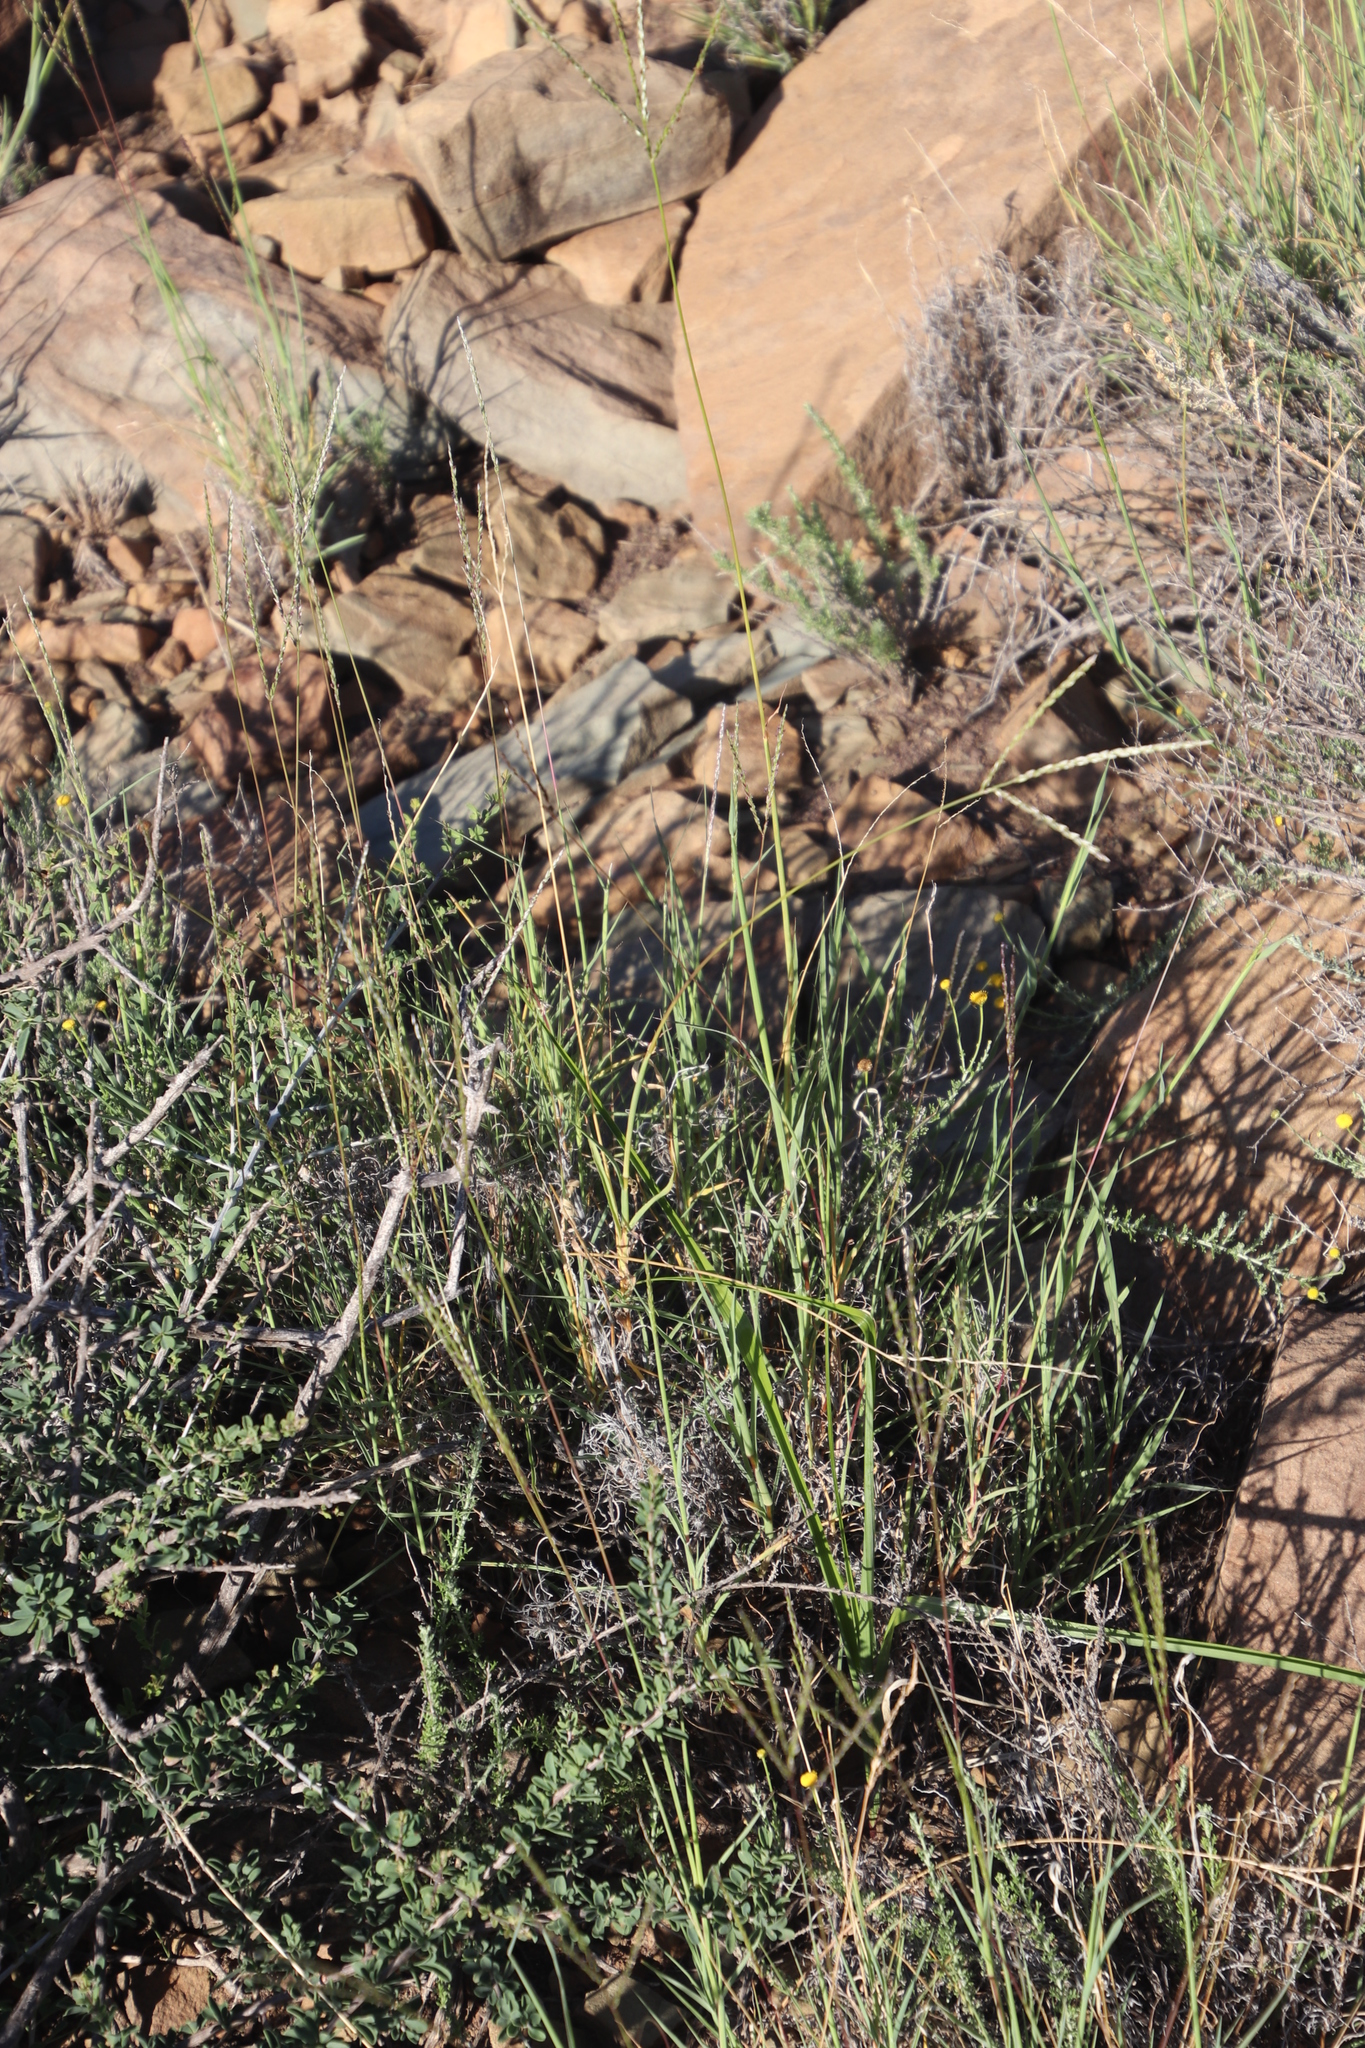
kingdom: Plantae
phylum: Tracheophyta
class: Liliopsida
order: Poales
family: Poaceae
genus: Digitaria
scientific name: Digitaria eriantha
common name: Digitgrass
